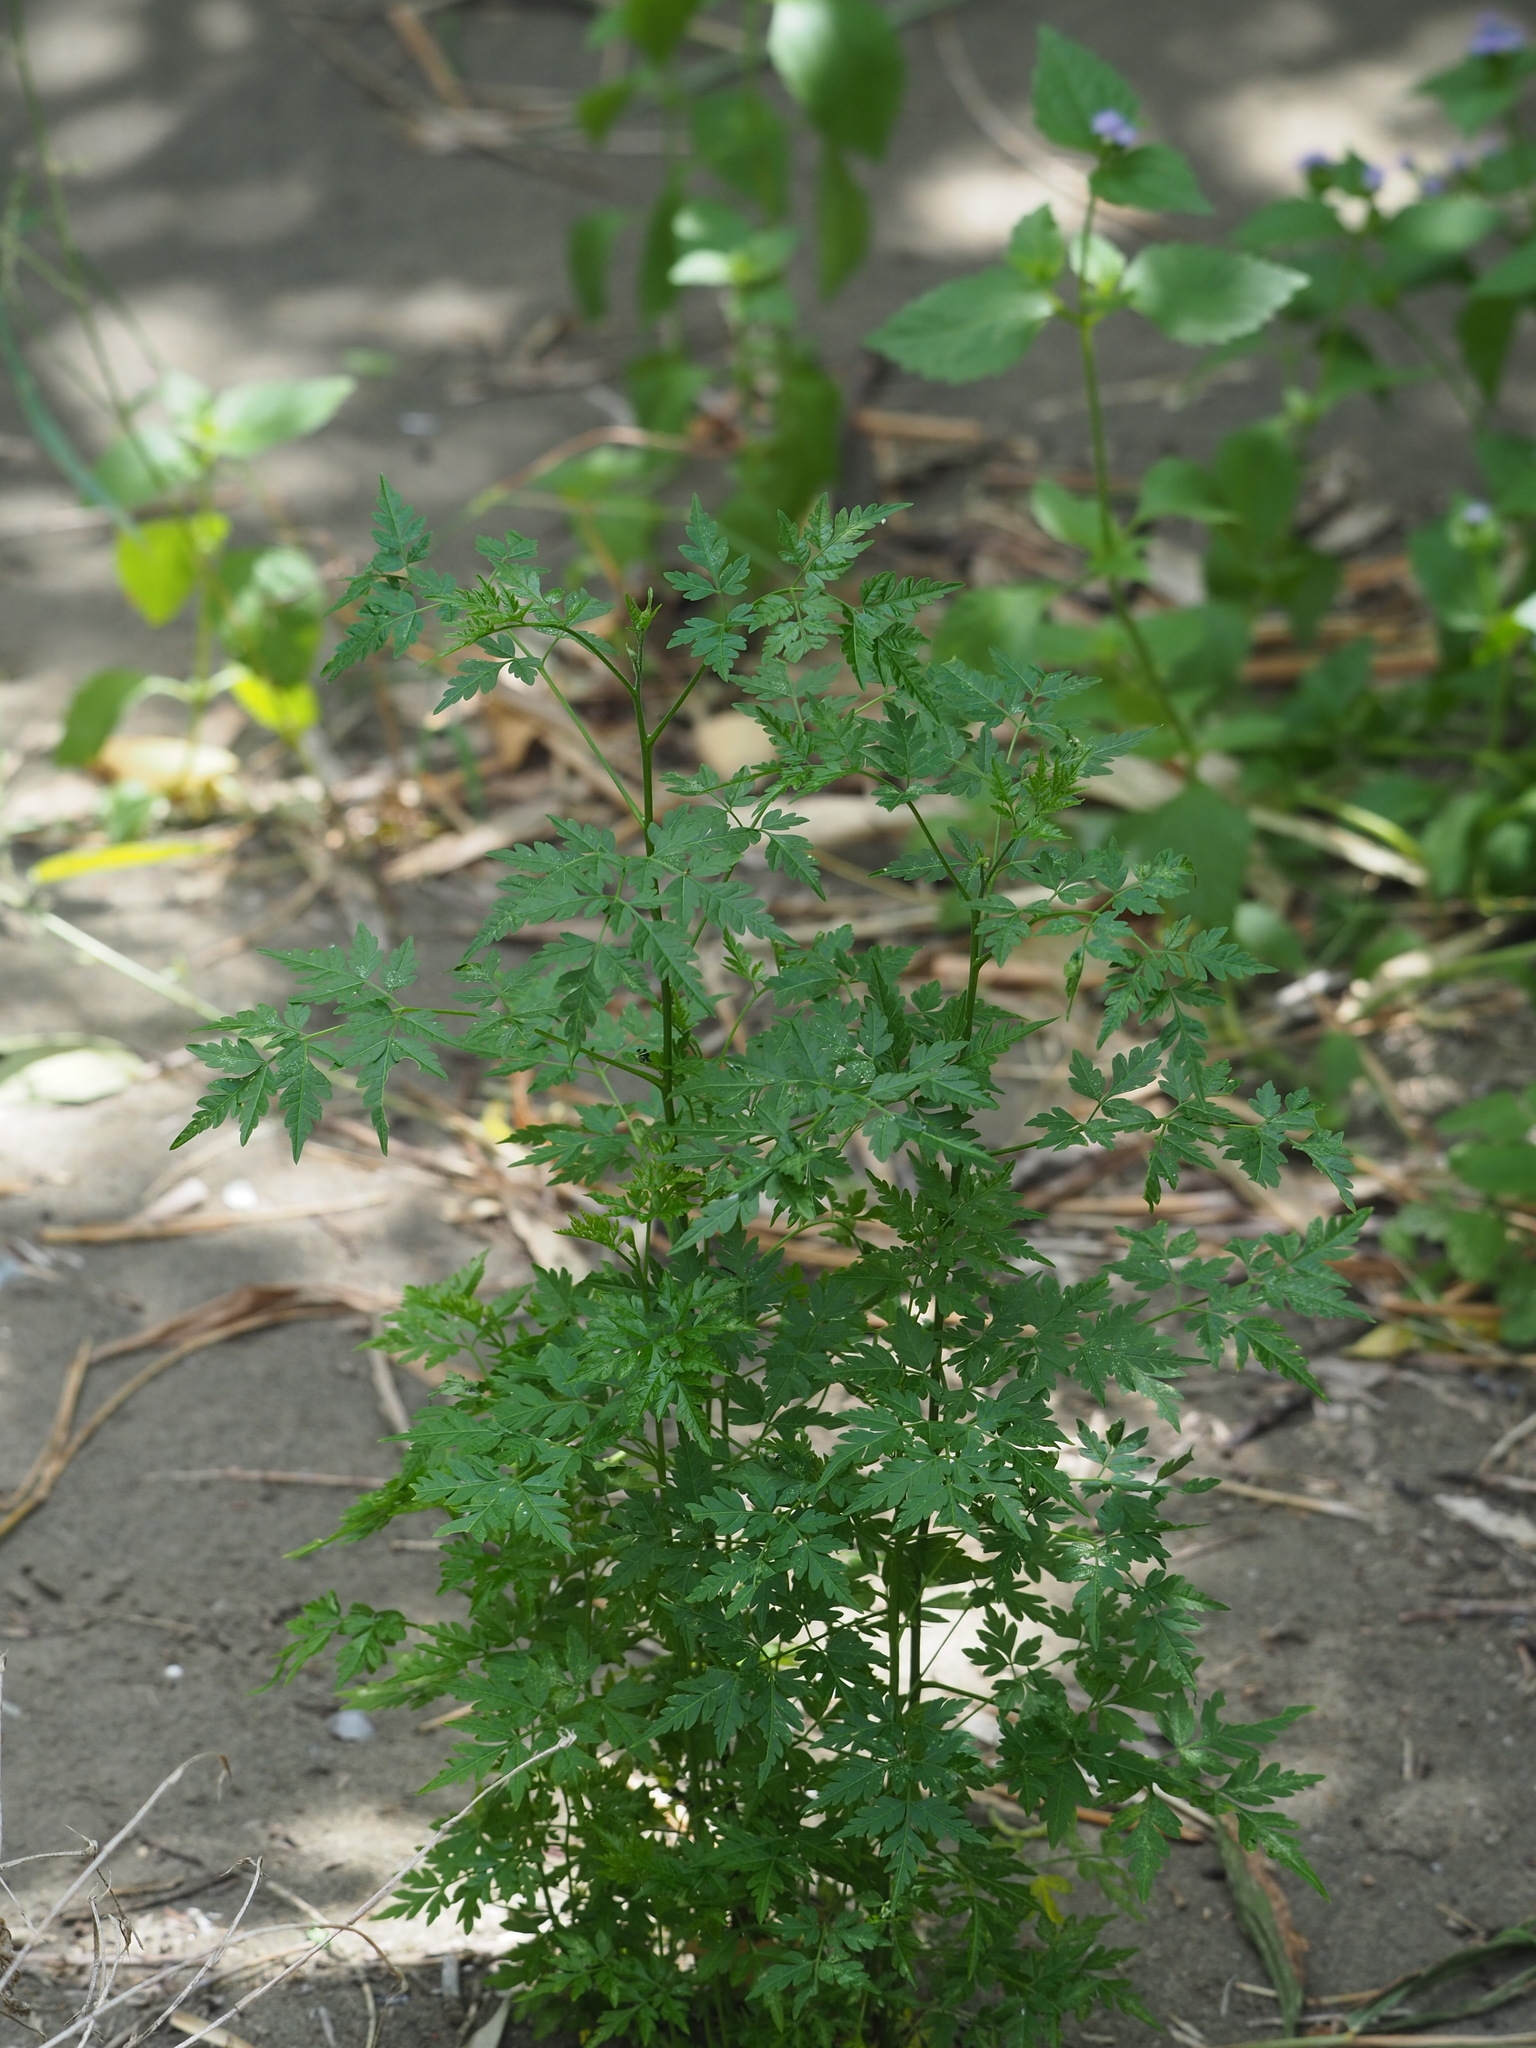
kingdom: Plantae
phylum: Tracheophyta
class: Magnoliopsida
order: Sapindales
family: Meliaceae
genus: Melia
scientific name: Melia azedarach
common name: Chinaberrytree
